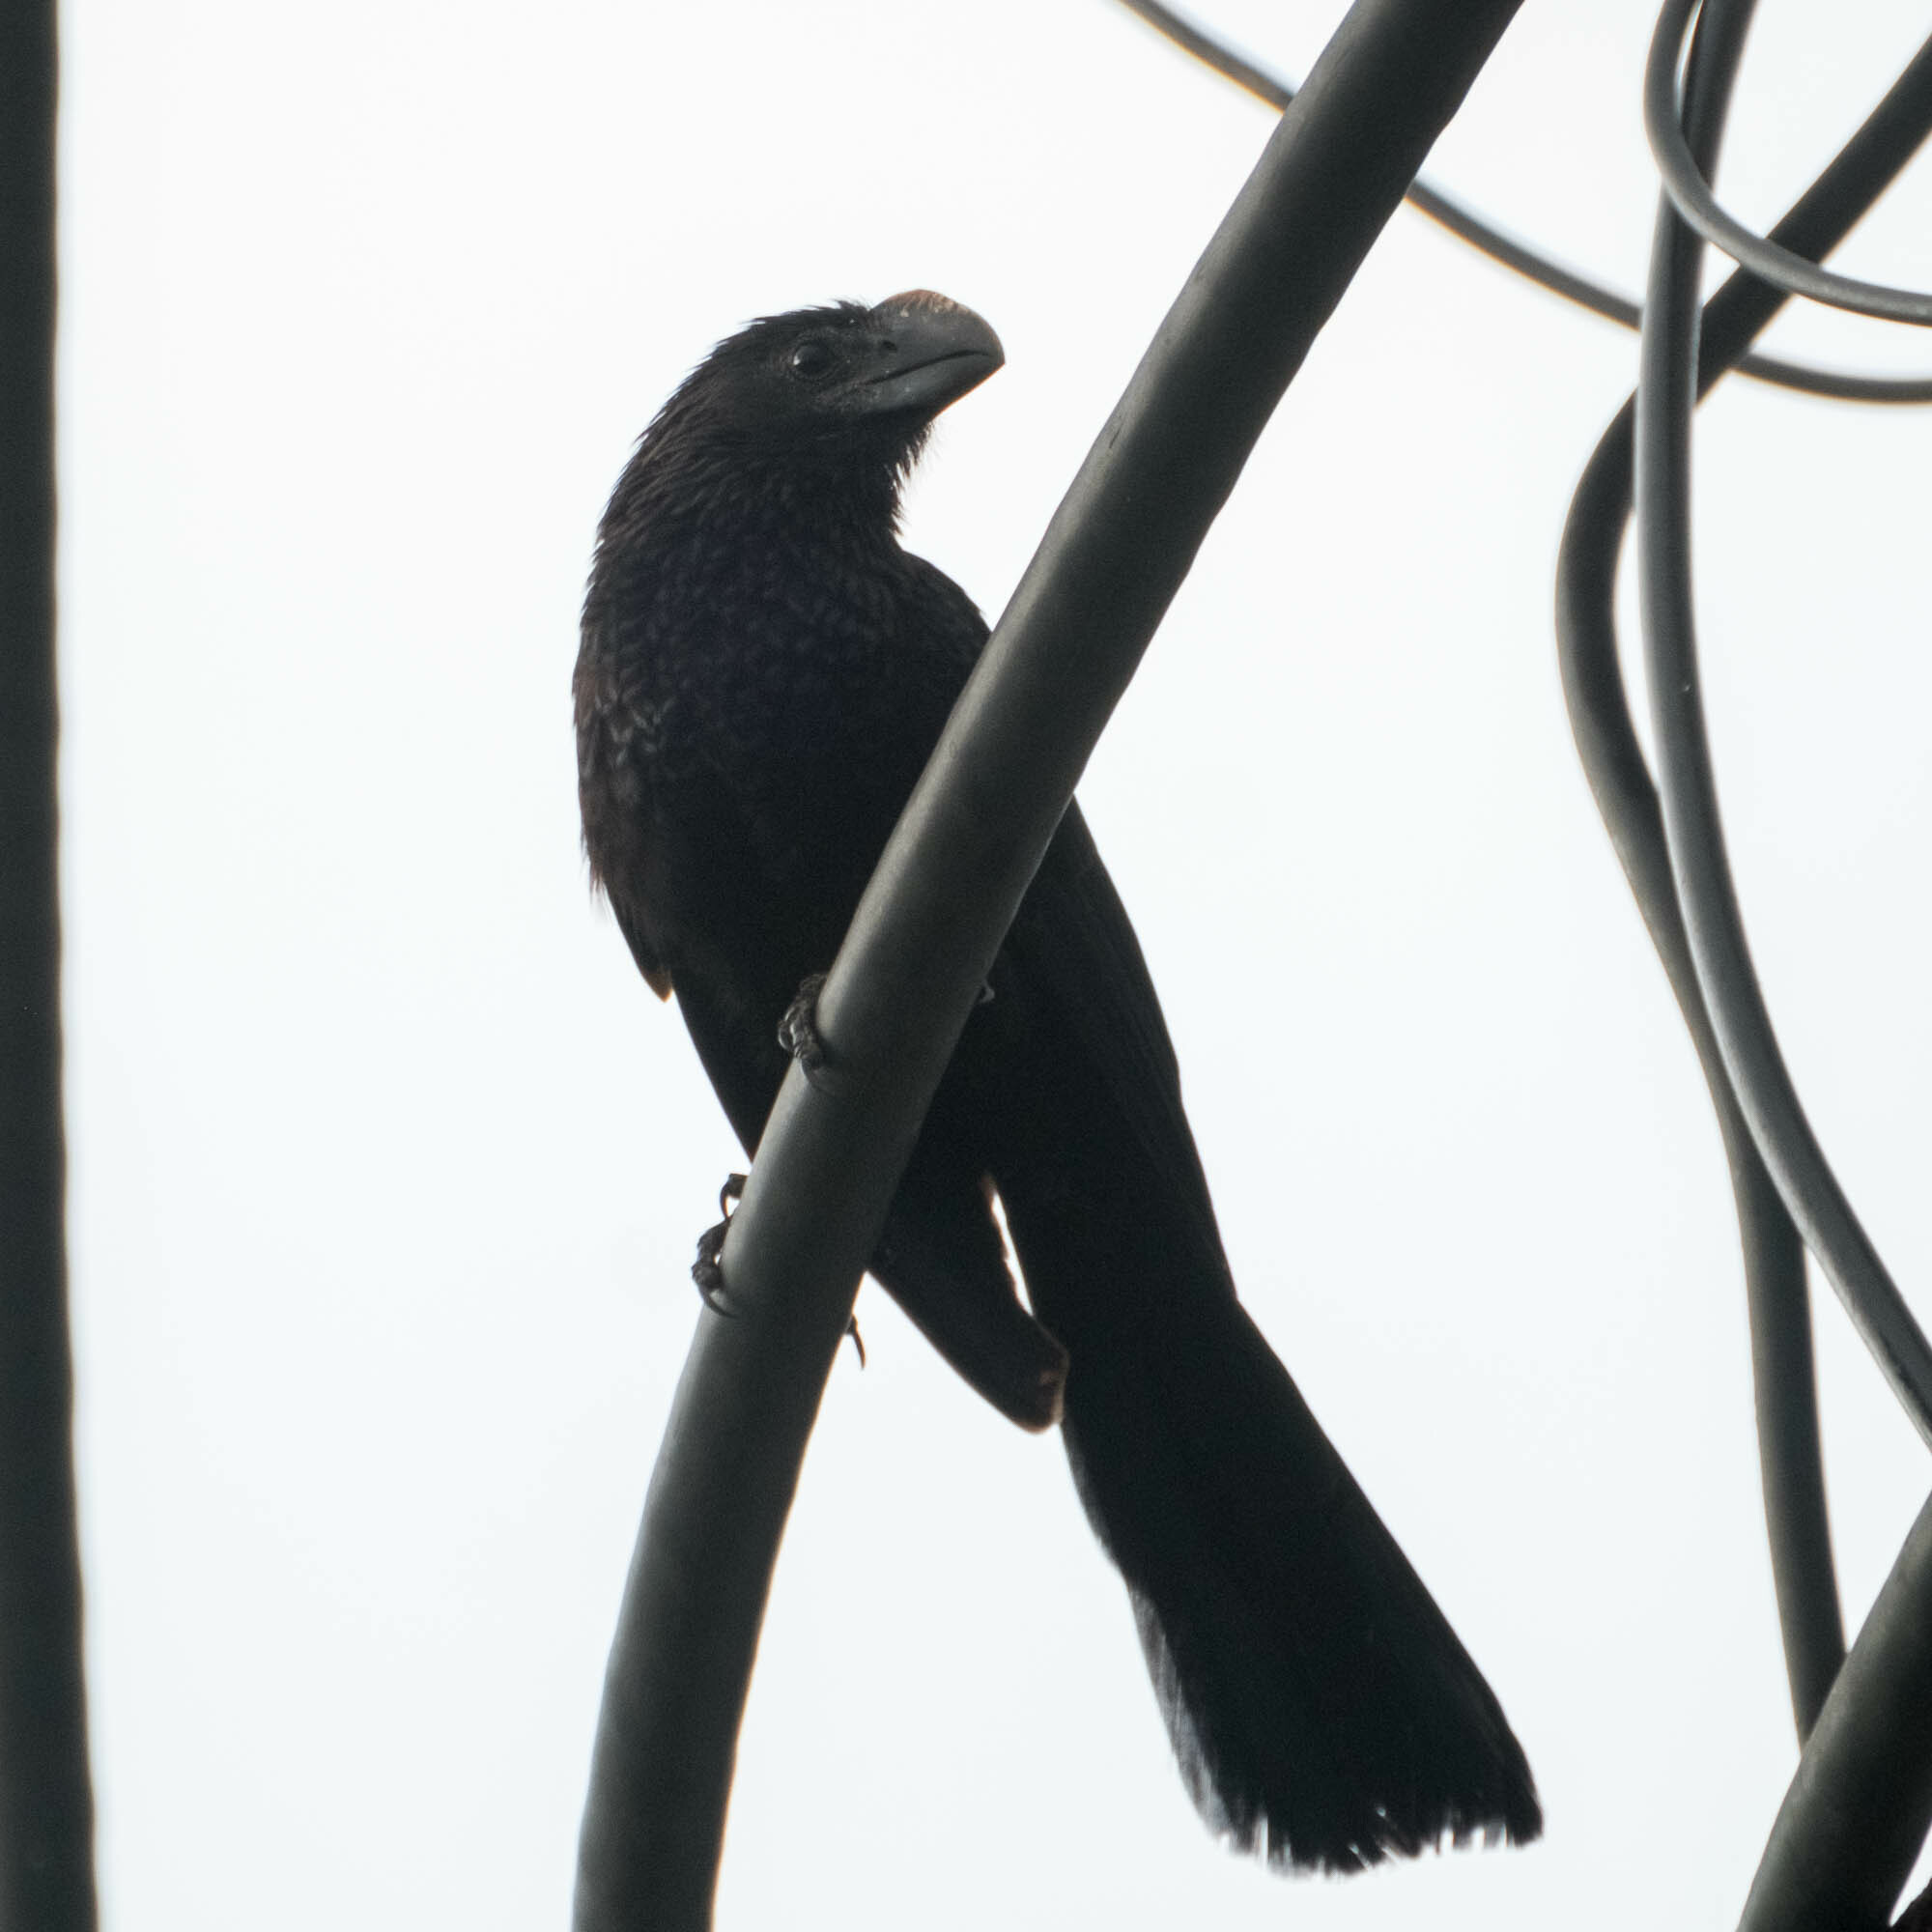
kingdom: Animalia
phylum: Chordata
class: Aves
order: Cuculiformes
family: Cuculidae
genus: Crotophaga
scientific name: Crotophaga ani
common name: Smooth-billed ani
